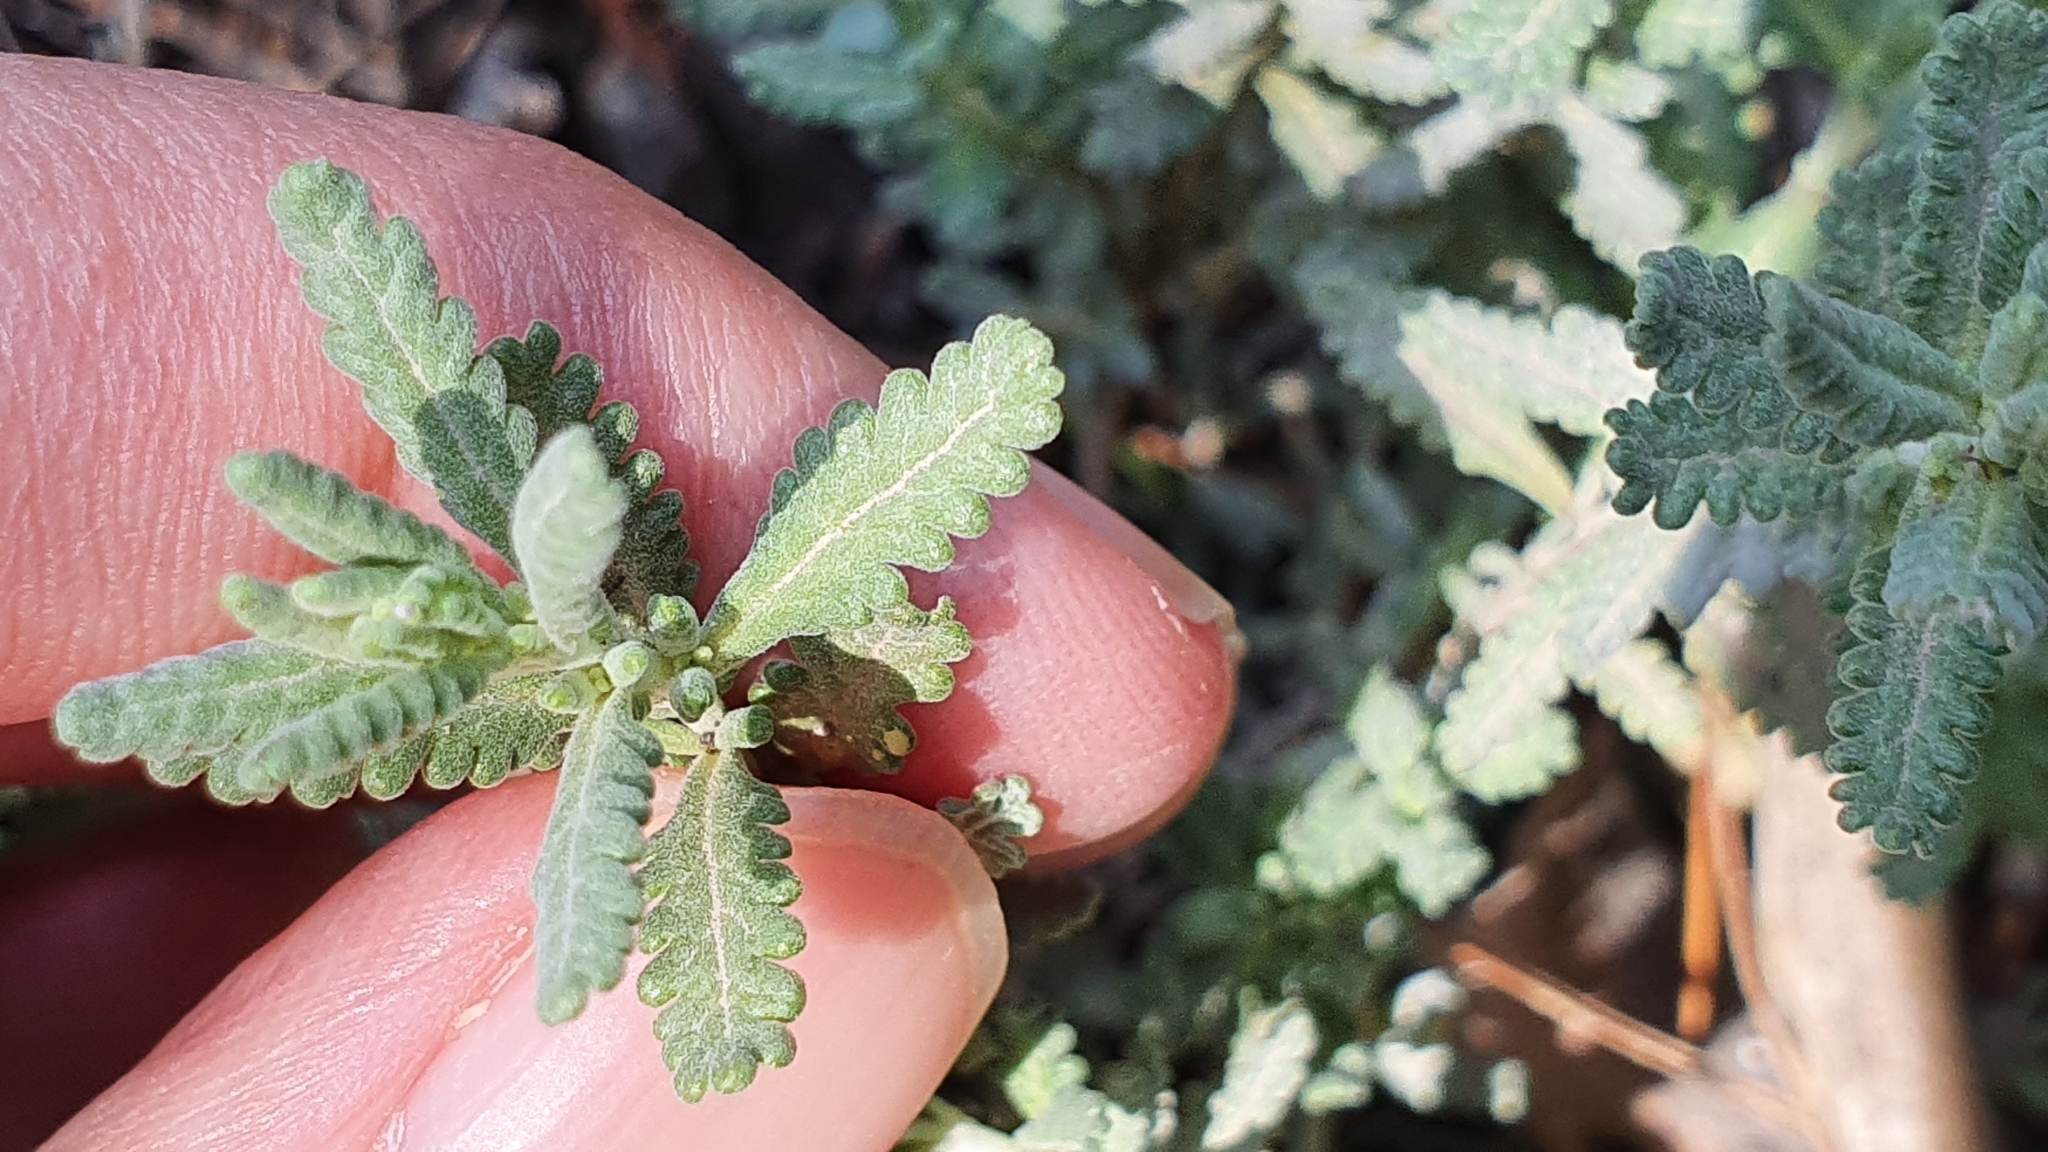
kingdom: Plantae
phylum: Tracheophyta
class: Magnoliopsida
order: Lamiales
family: Lamiaceae
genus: Teucrium
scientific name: Teucrium capitatum
